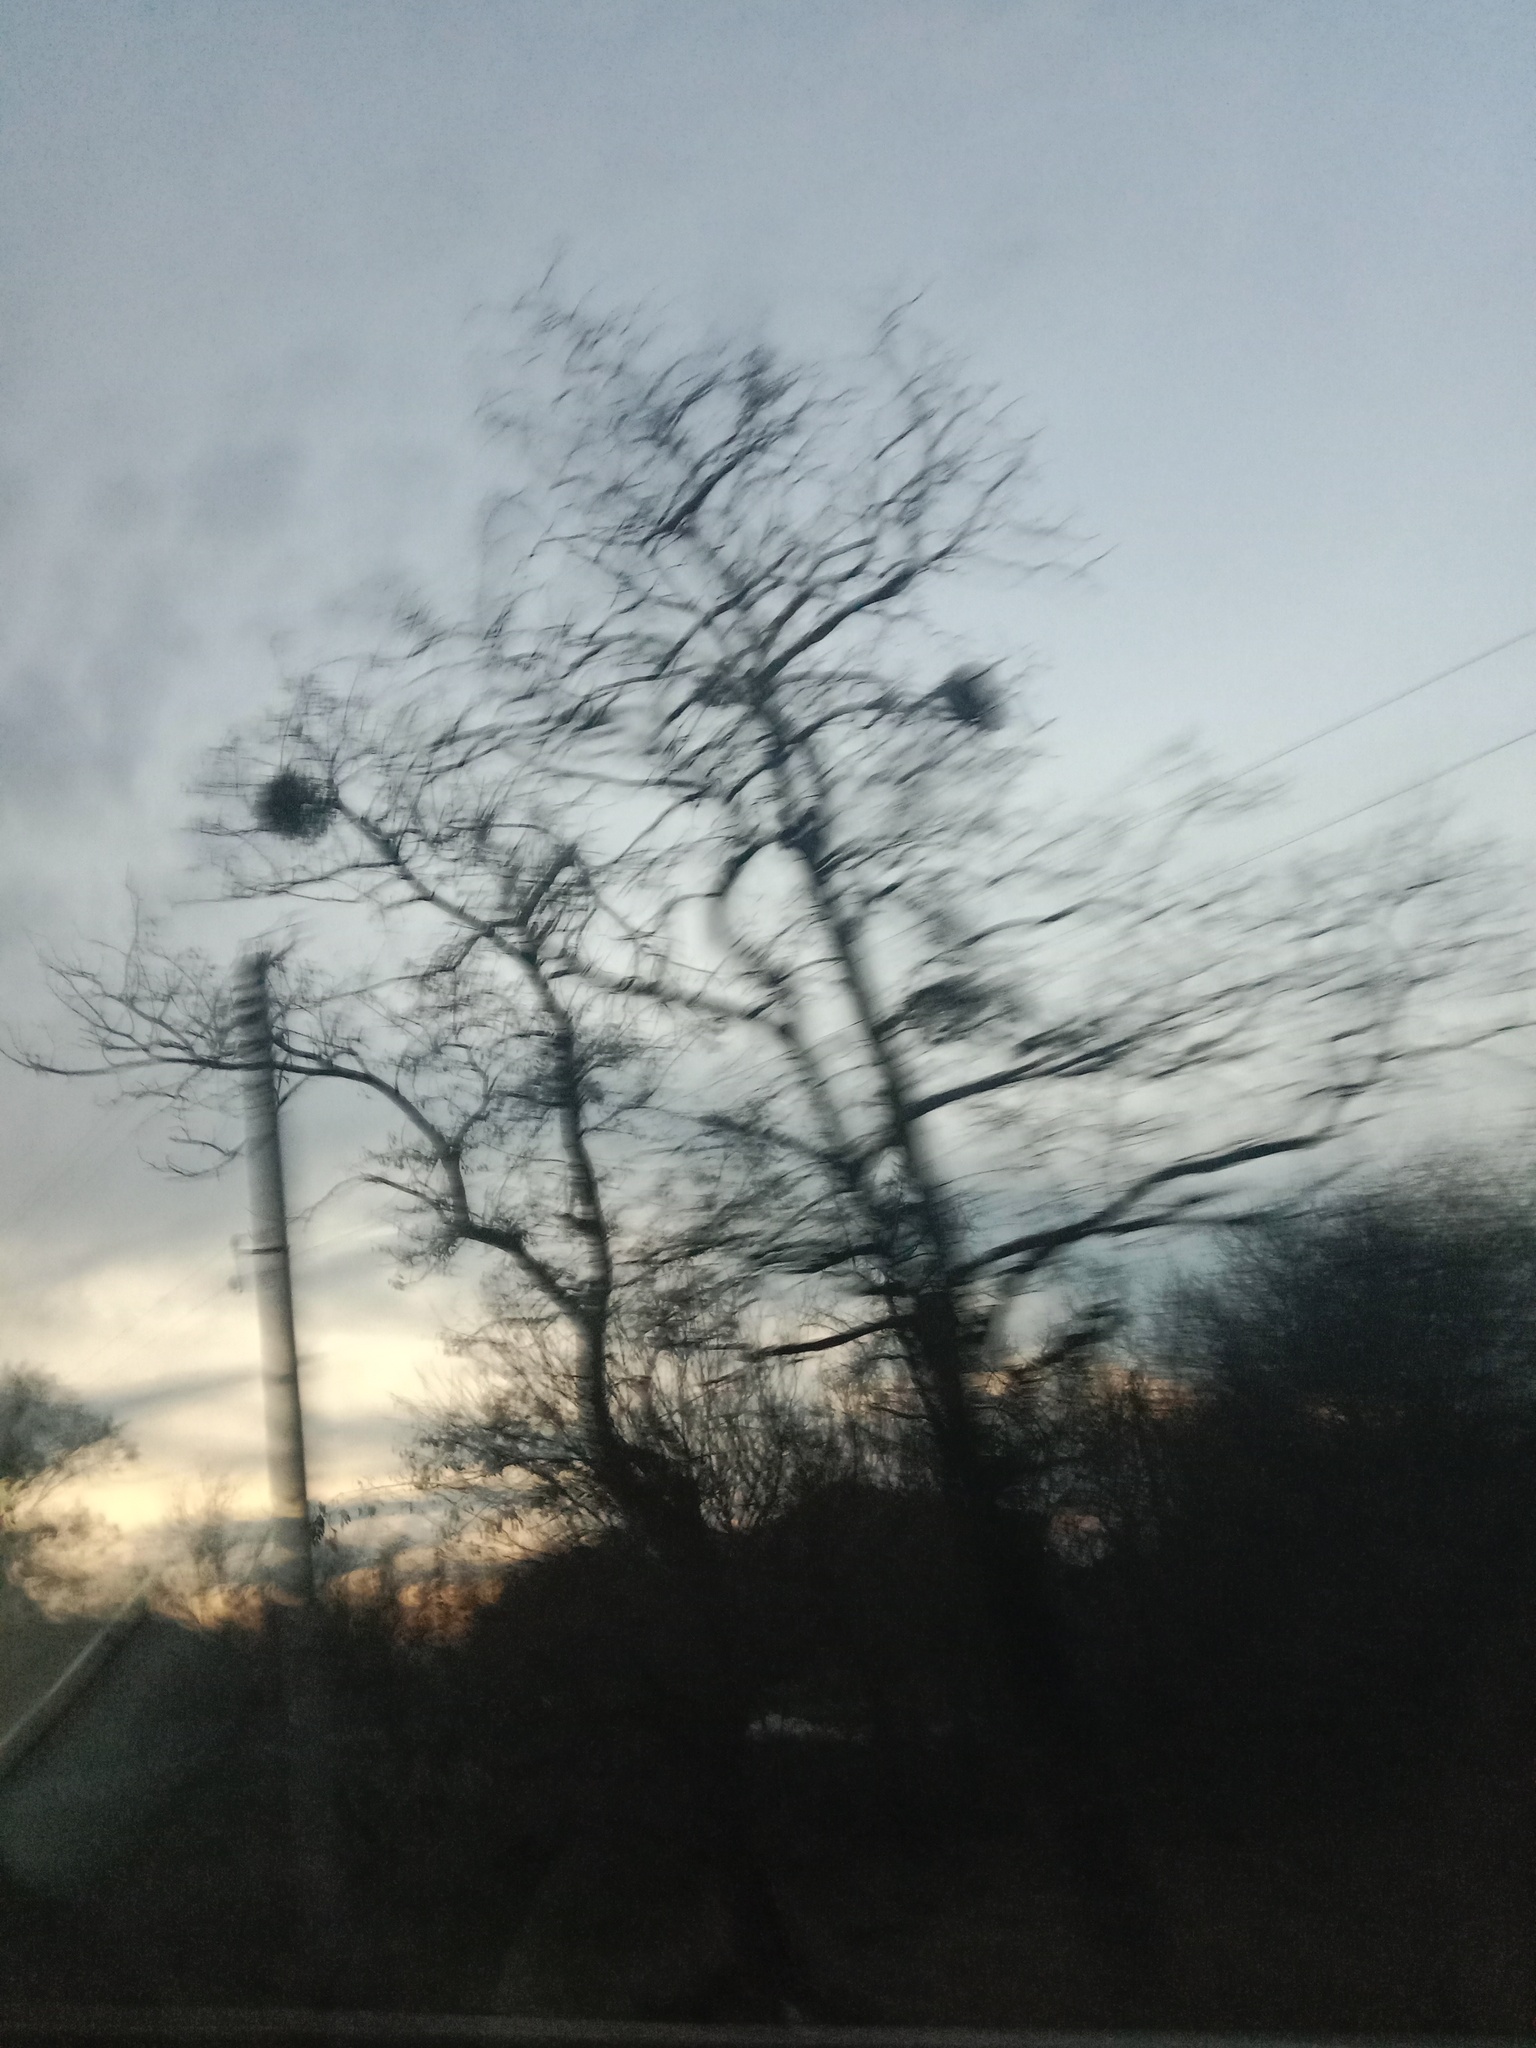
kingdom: Plantae
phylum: Tracheophyta
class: Magnoliopsida
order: Santalales
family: Viscaceae
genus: Viscum
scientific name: Viscum album
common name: Mistletoe
